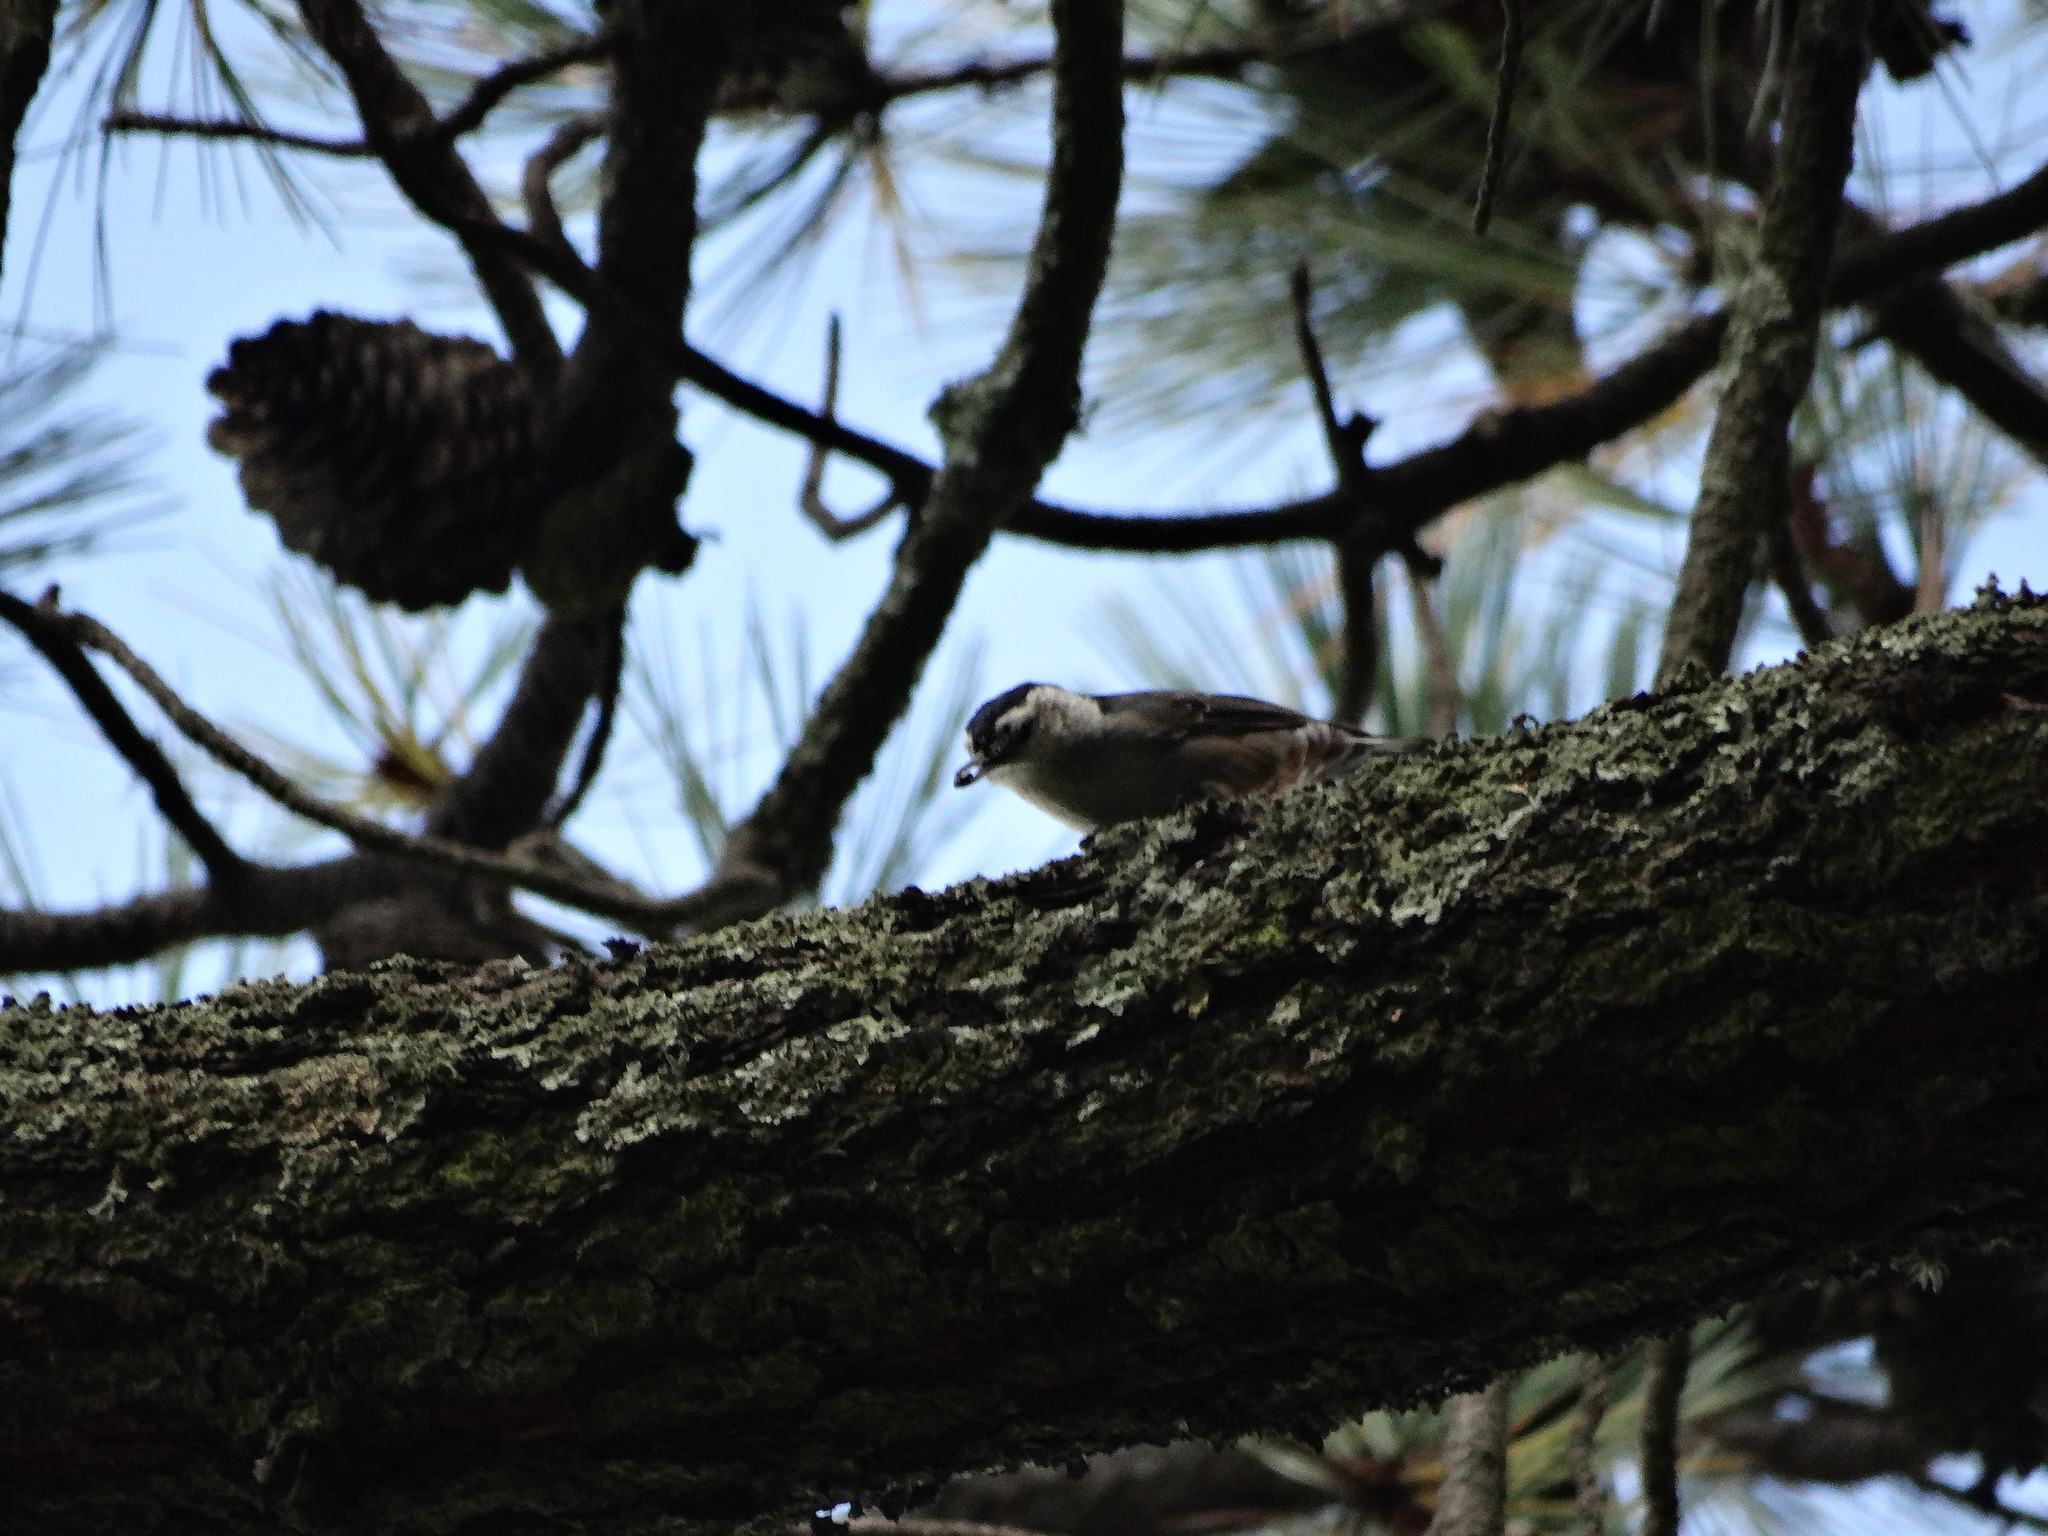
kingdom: Animalia
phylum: Chordata
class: Aves
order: Passeriformes
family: Sittidae
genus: Sitta
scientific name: Sitta carolinensis
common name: White-breasted nuthatch
